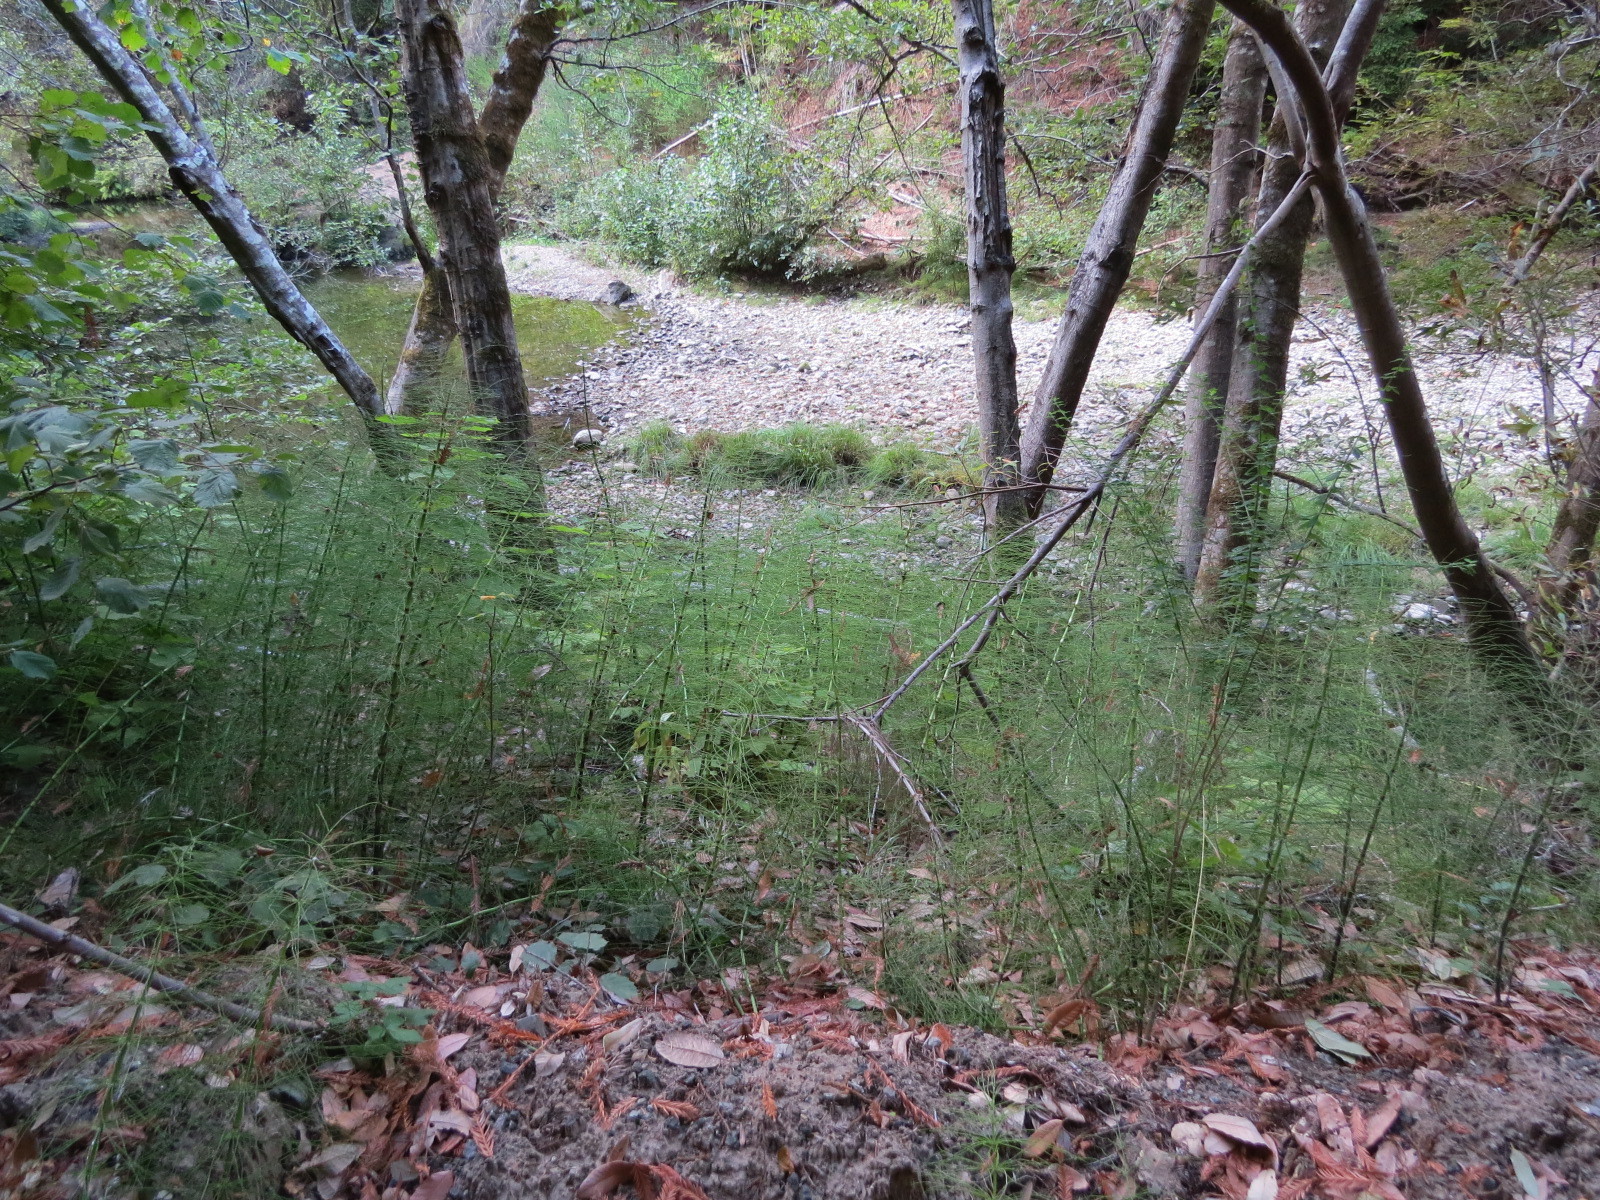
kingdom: Plantae
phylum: Tracheophyta
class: Polypodiopsida
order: Equisetales
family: Equisetaceae
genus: Equisetum
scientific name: Equisetum telmateia
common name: Great horsetail
